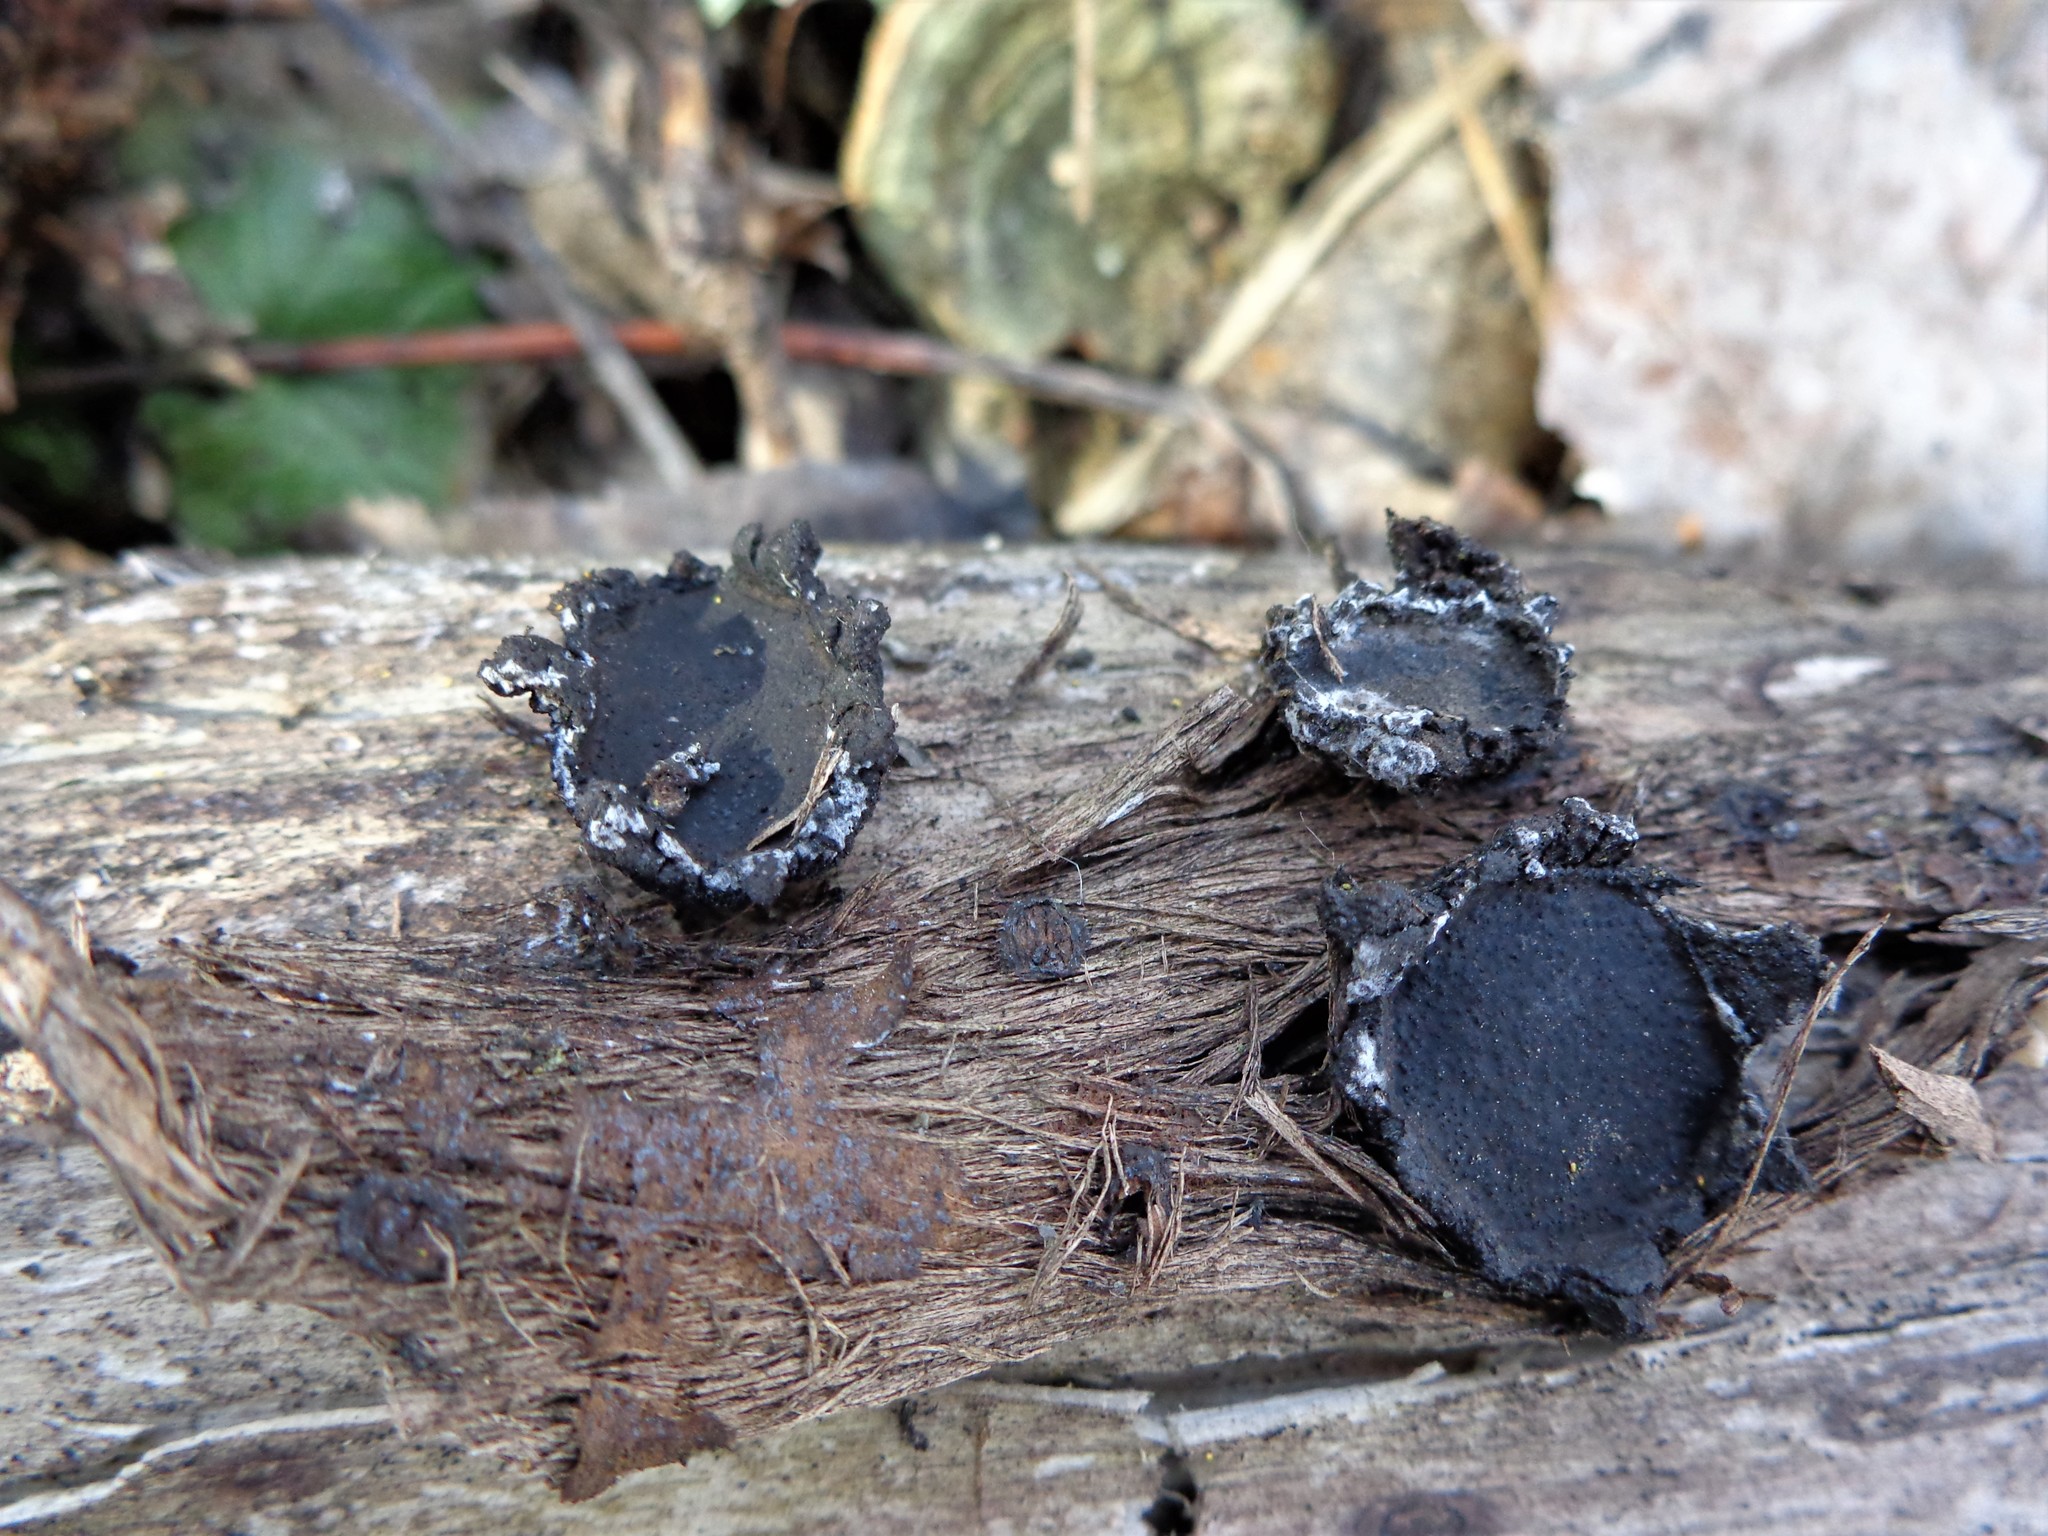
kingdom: Fungi
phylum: Ascomycota
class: Sordariomycetes
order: Xylariales
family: Graphostromataceae
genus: Biscogniauxia
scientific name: Biscogniauxia repanda
